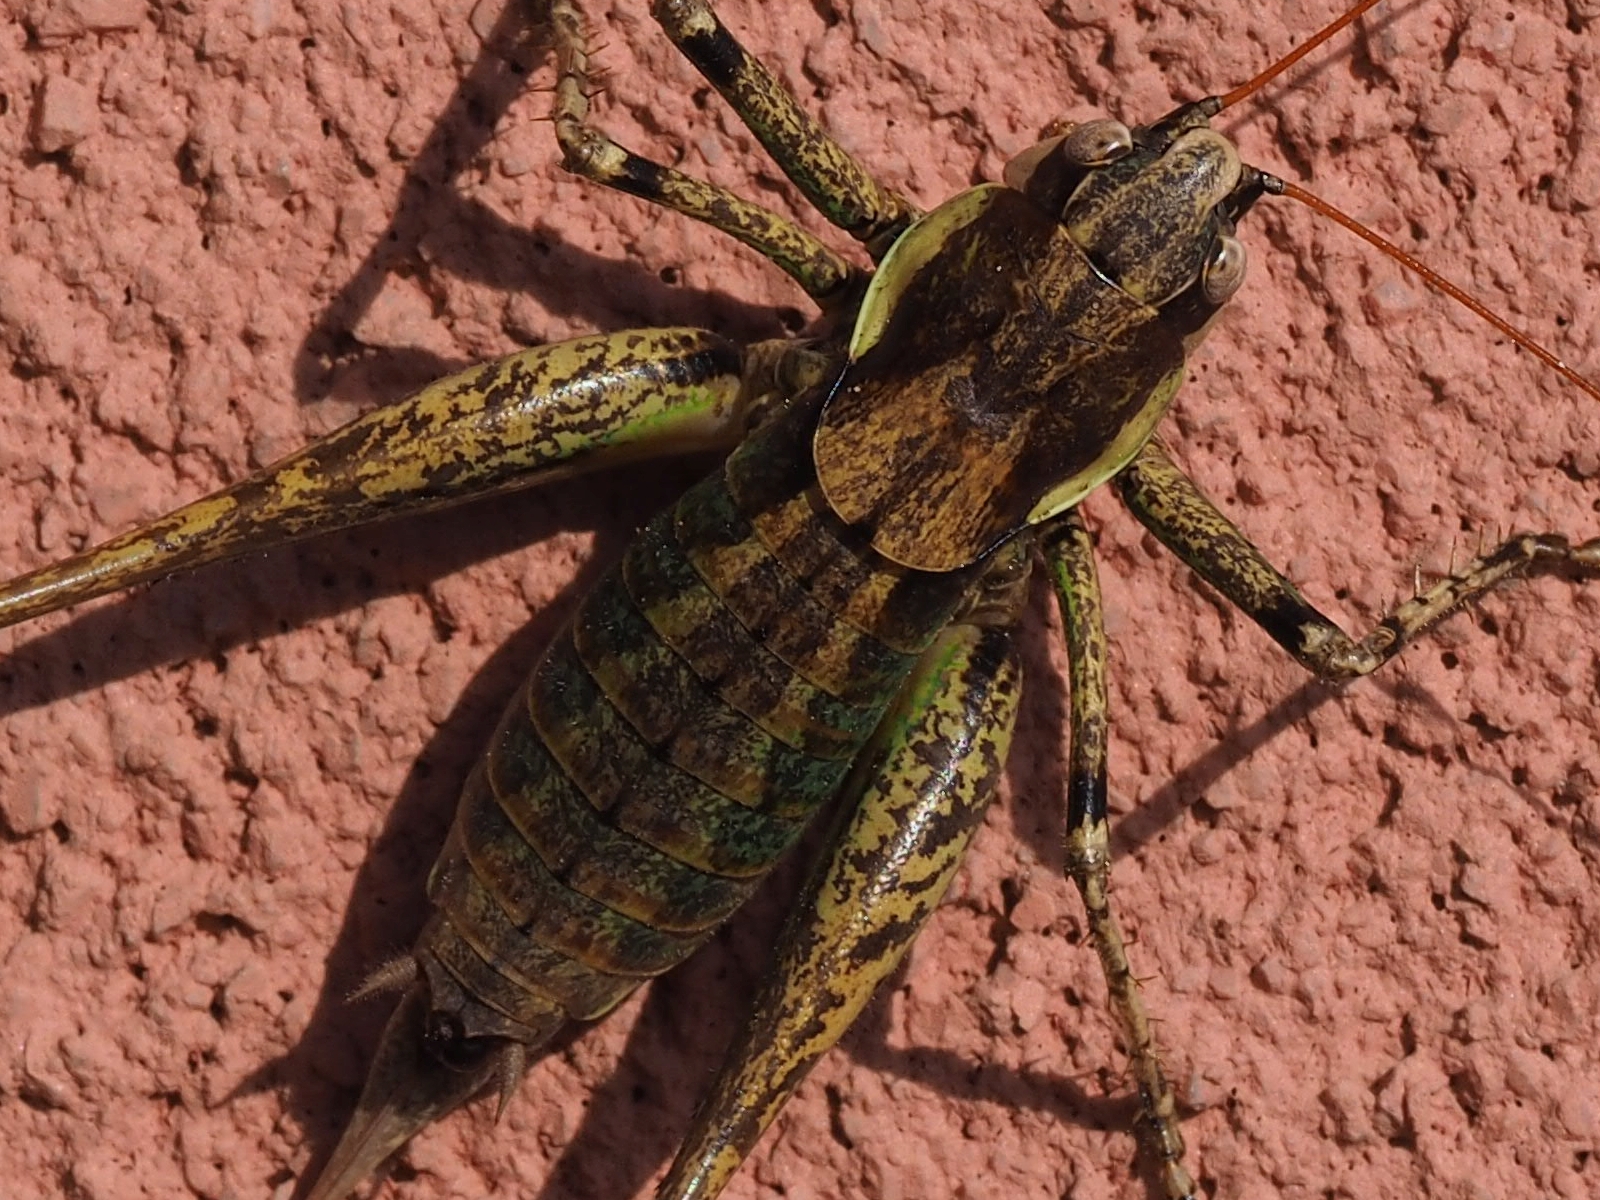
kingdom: Animalia
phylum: Arthropoda
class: Insecta
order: Orthoptera
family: Tettigoniidae
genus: Rhacocleis
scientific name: Rhacocleis annulata
